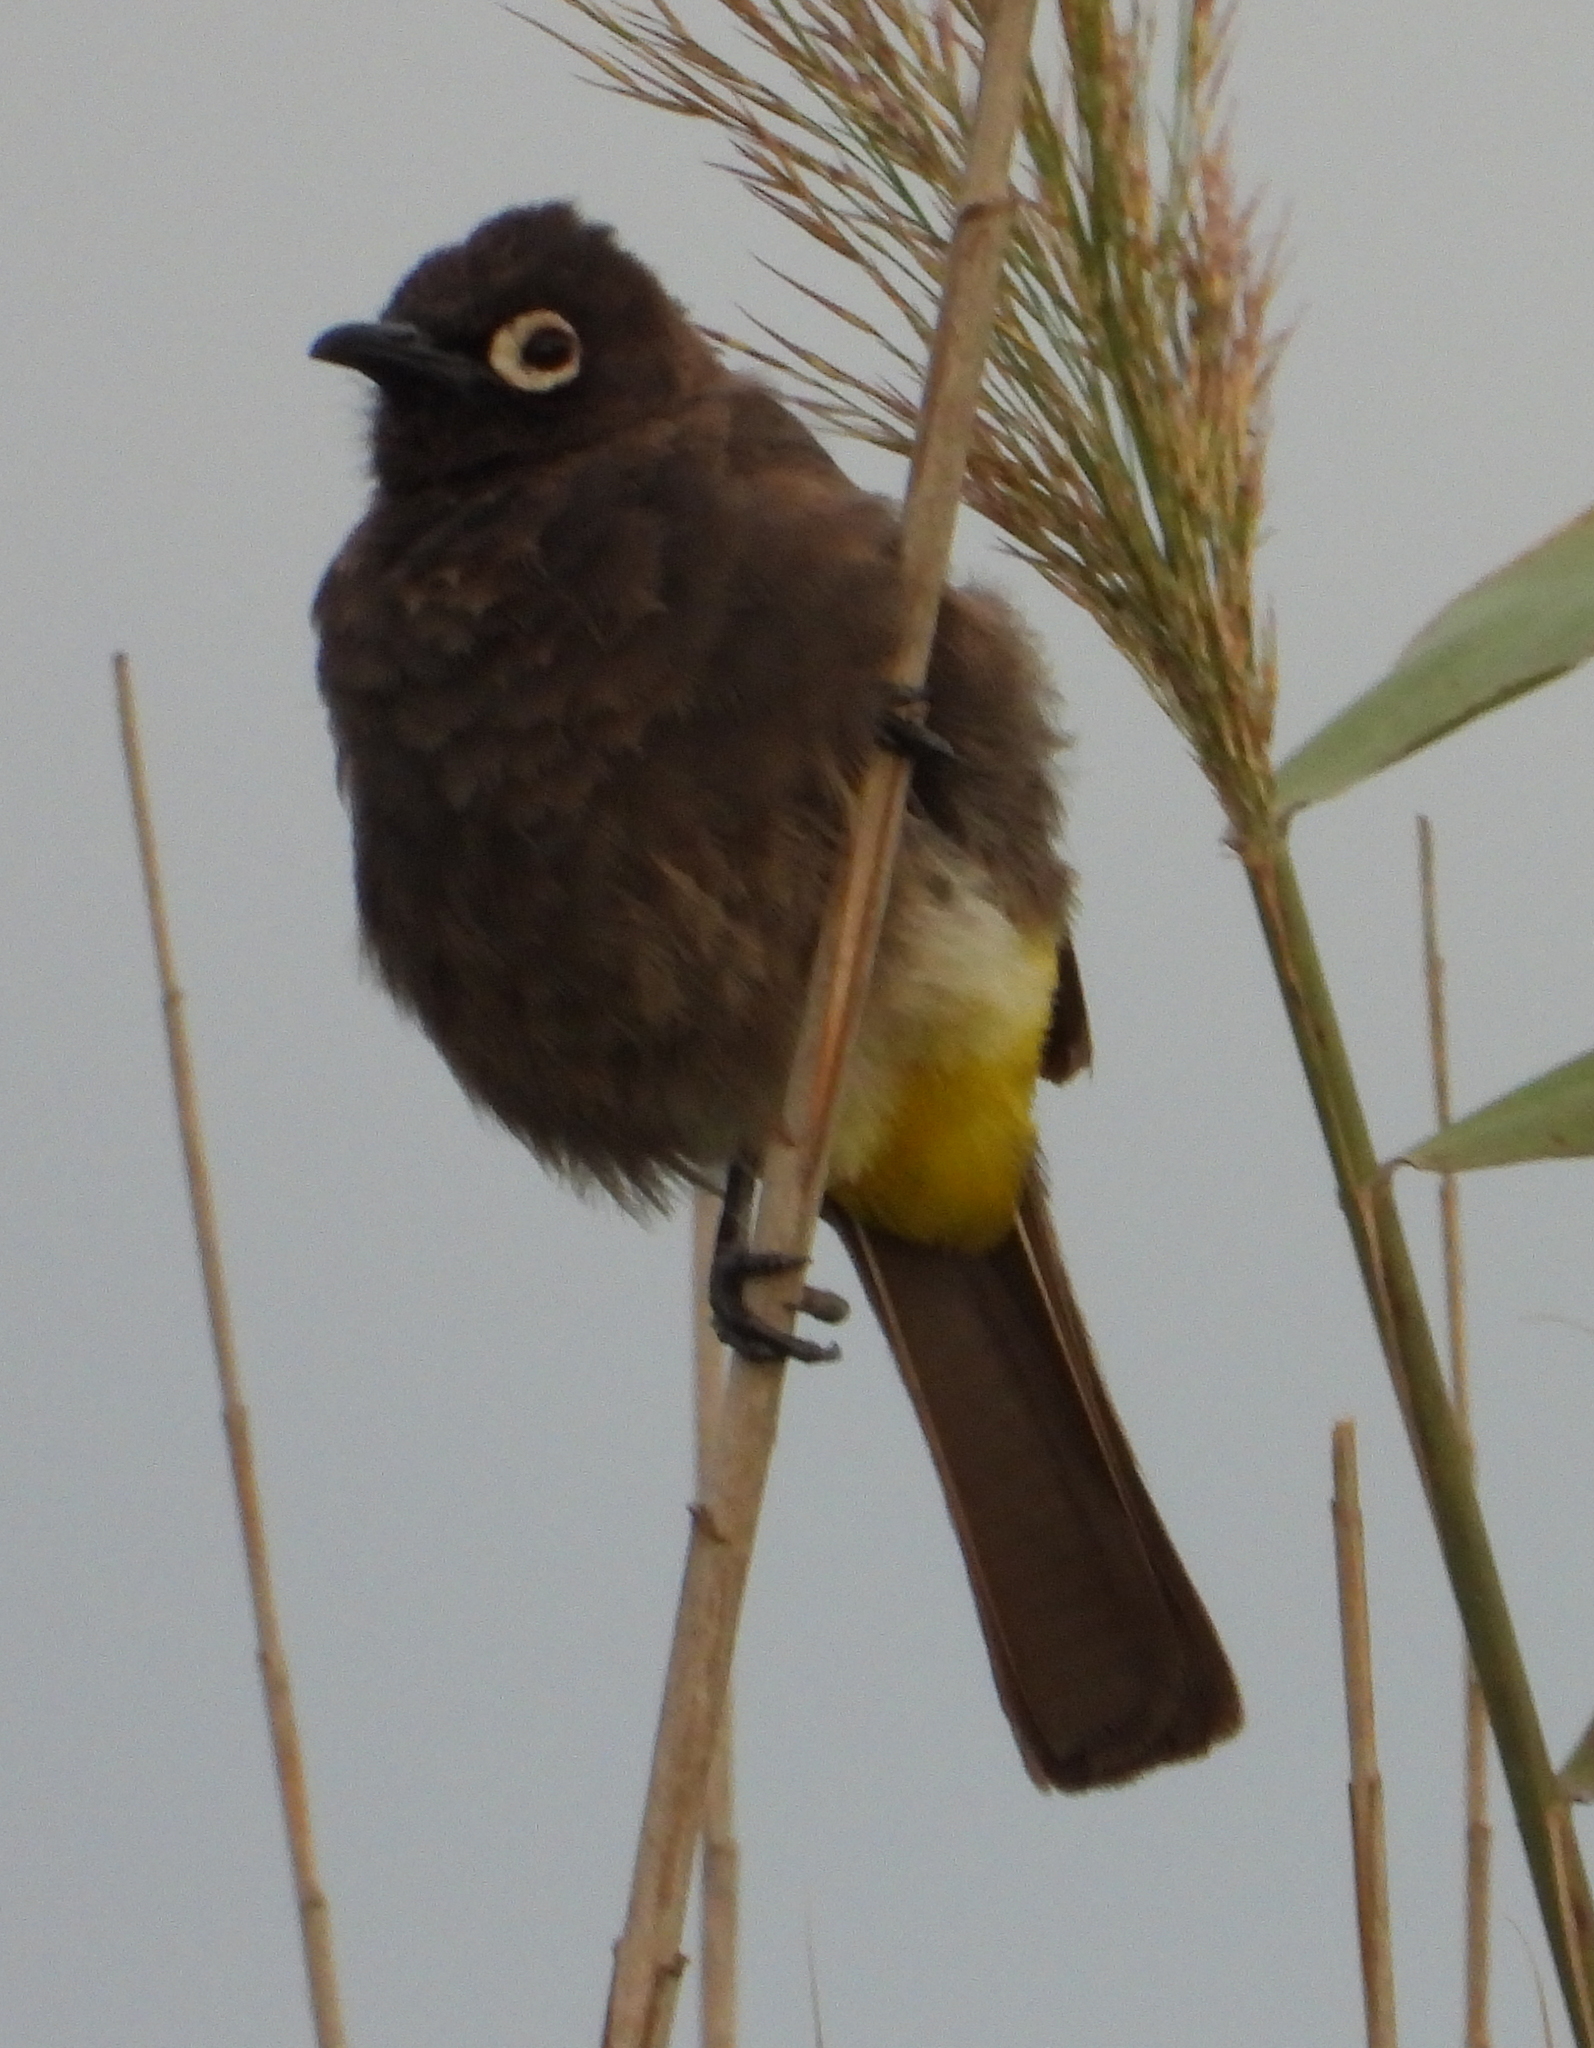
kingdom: Animalia
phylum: Chordata
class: Aves
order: Passeriformes
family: Pycnonotidae
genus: Pycnonotus
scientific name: Pycnonotus capensis
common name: Cape bulbul
